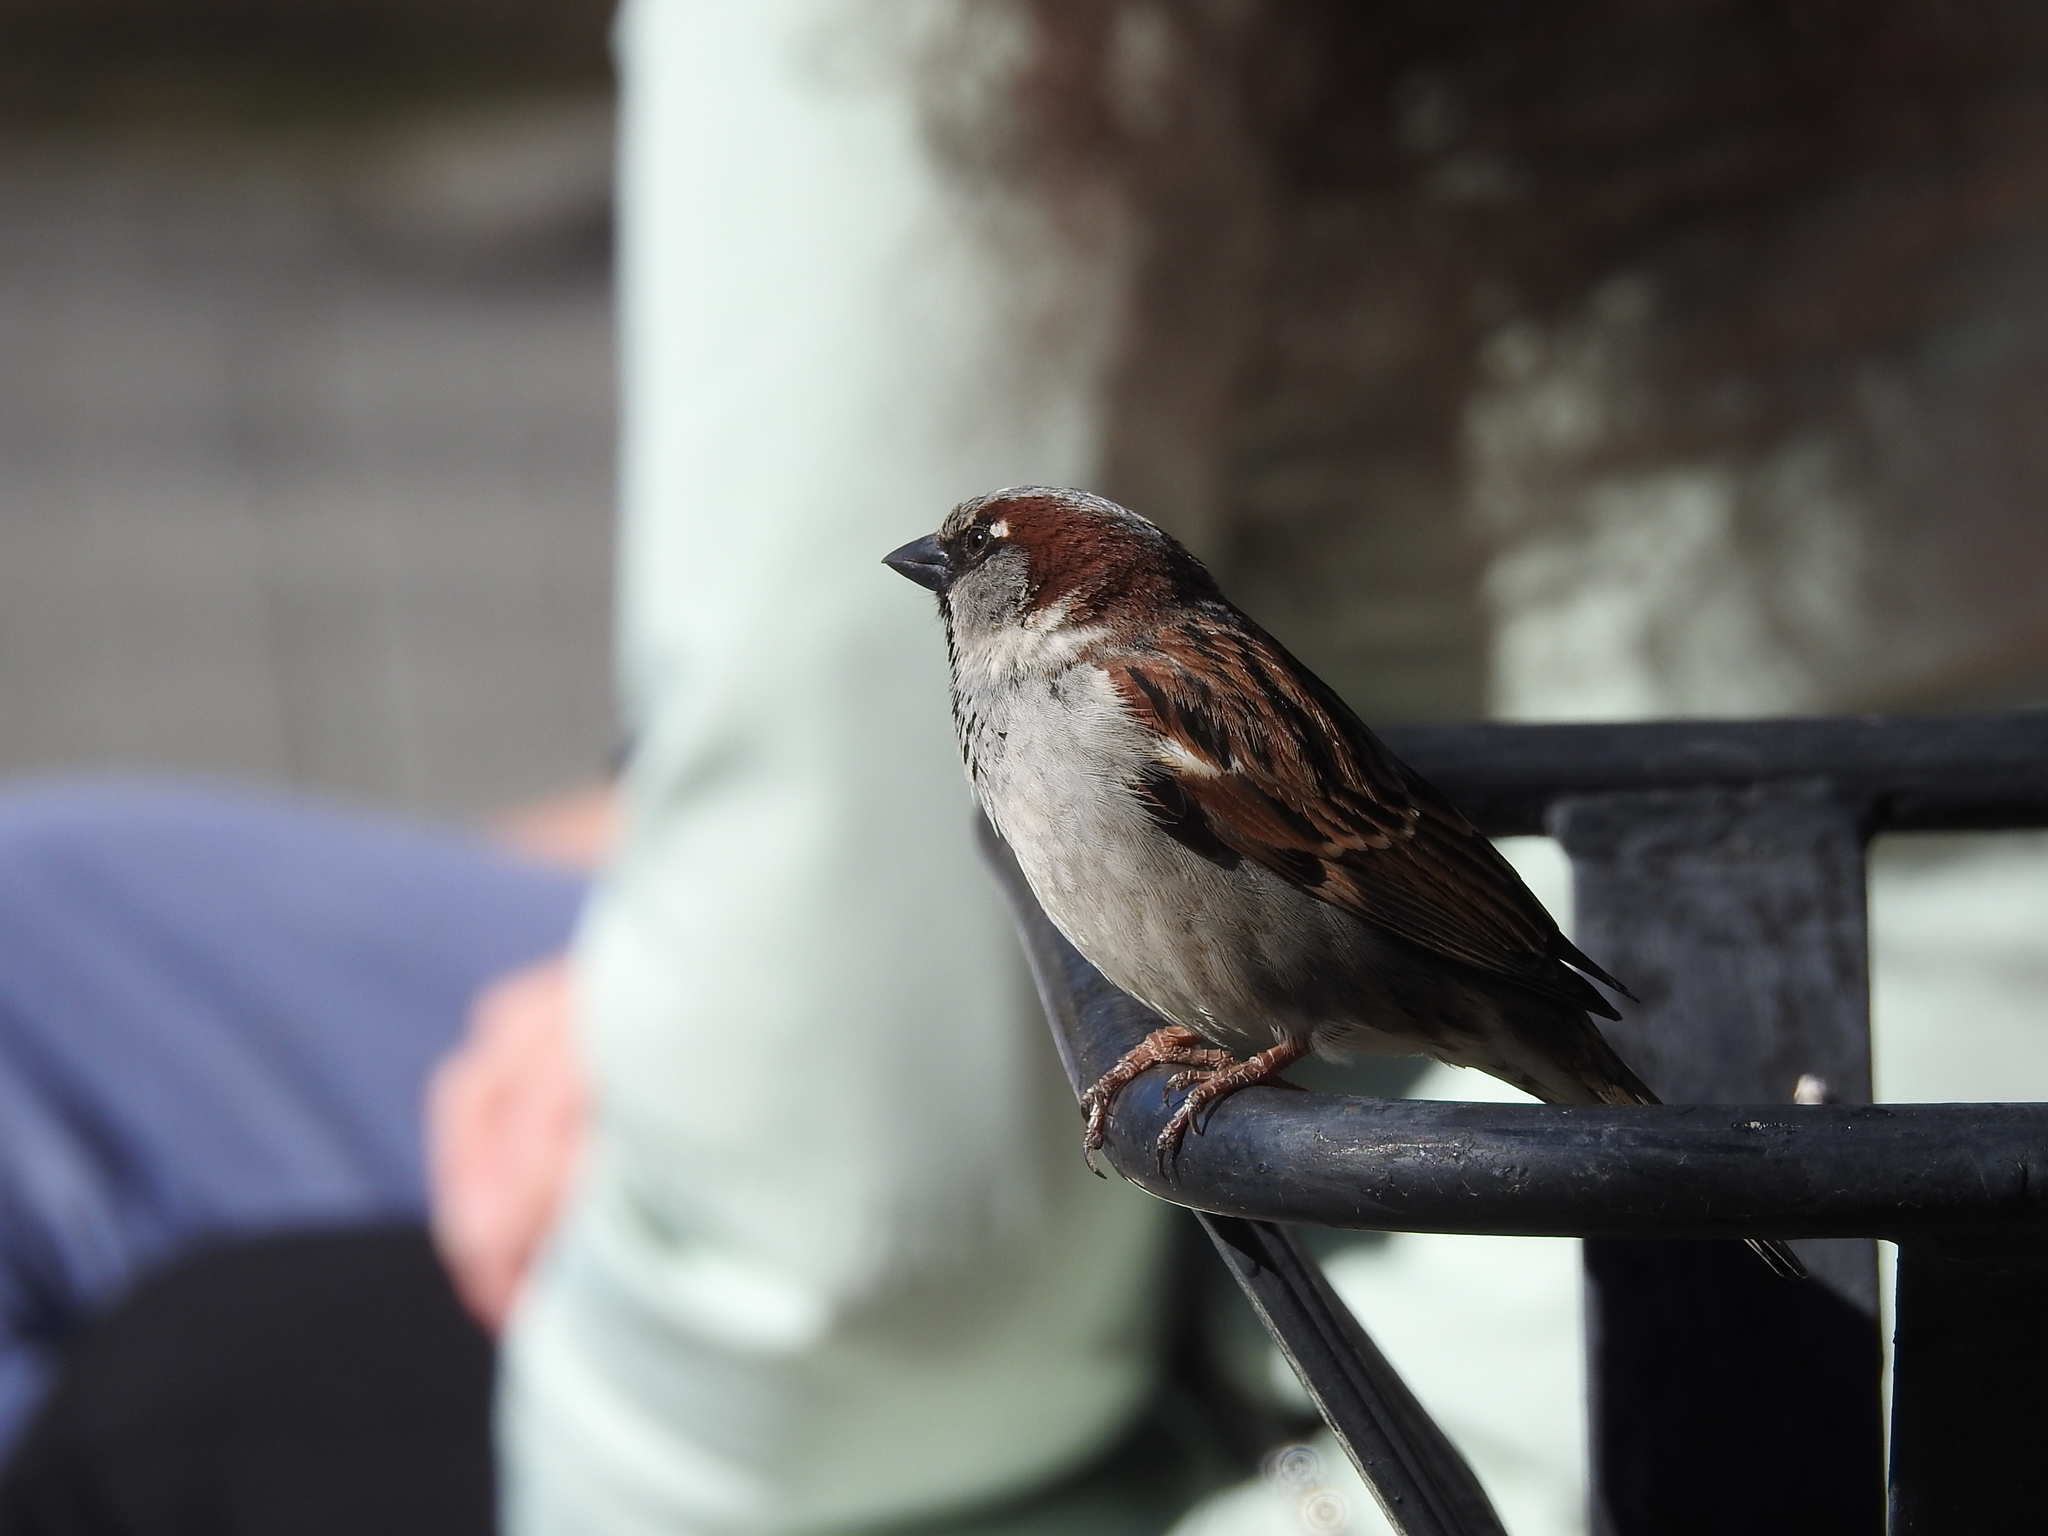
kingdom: Animalia
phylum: Chordata
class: Aves
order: Passeriformes
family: Passeridae
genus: Passer
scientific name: Passer domesticus
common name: House sparrow
